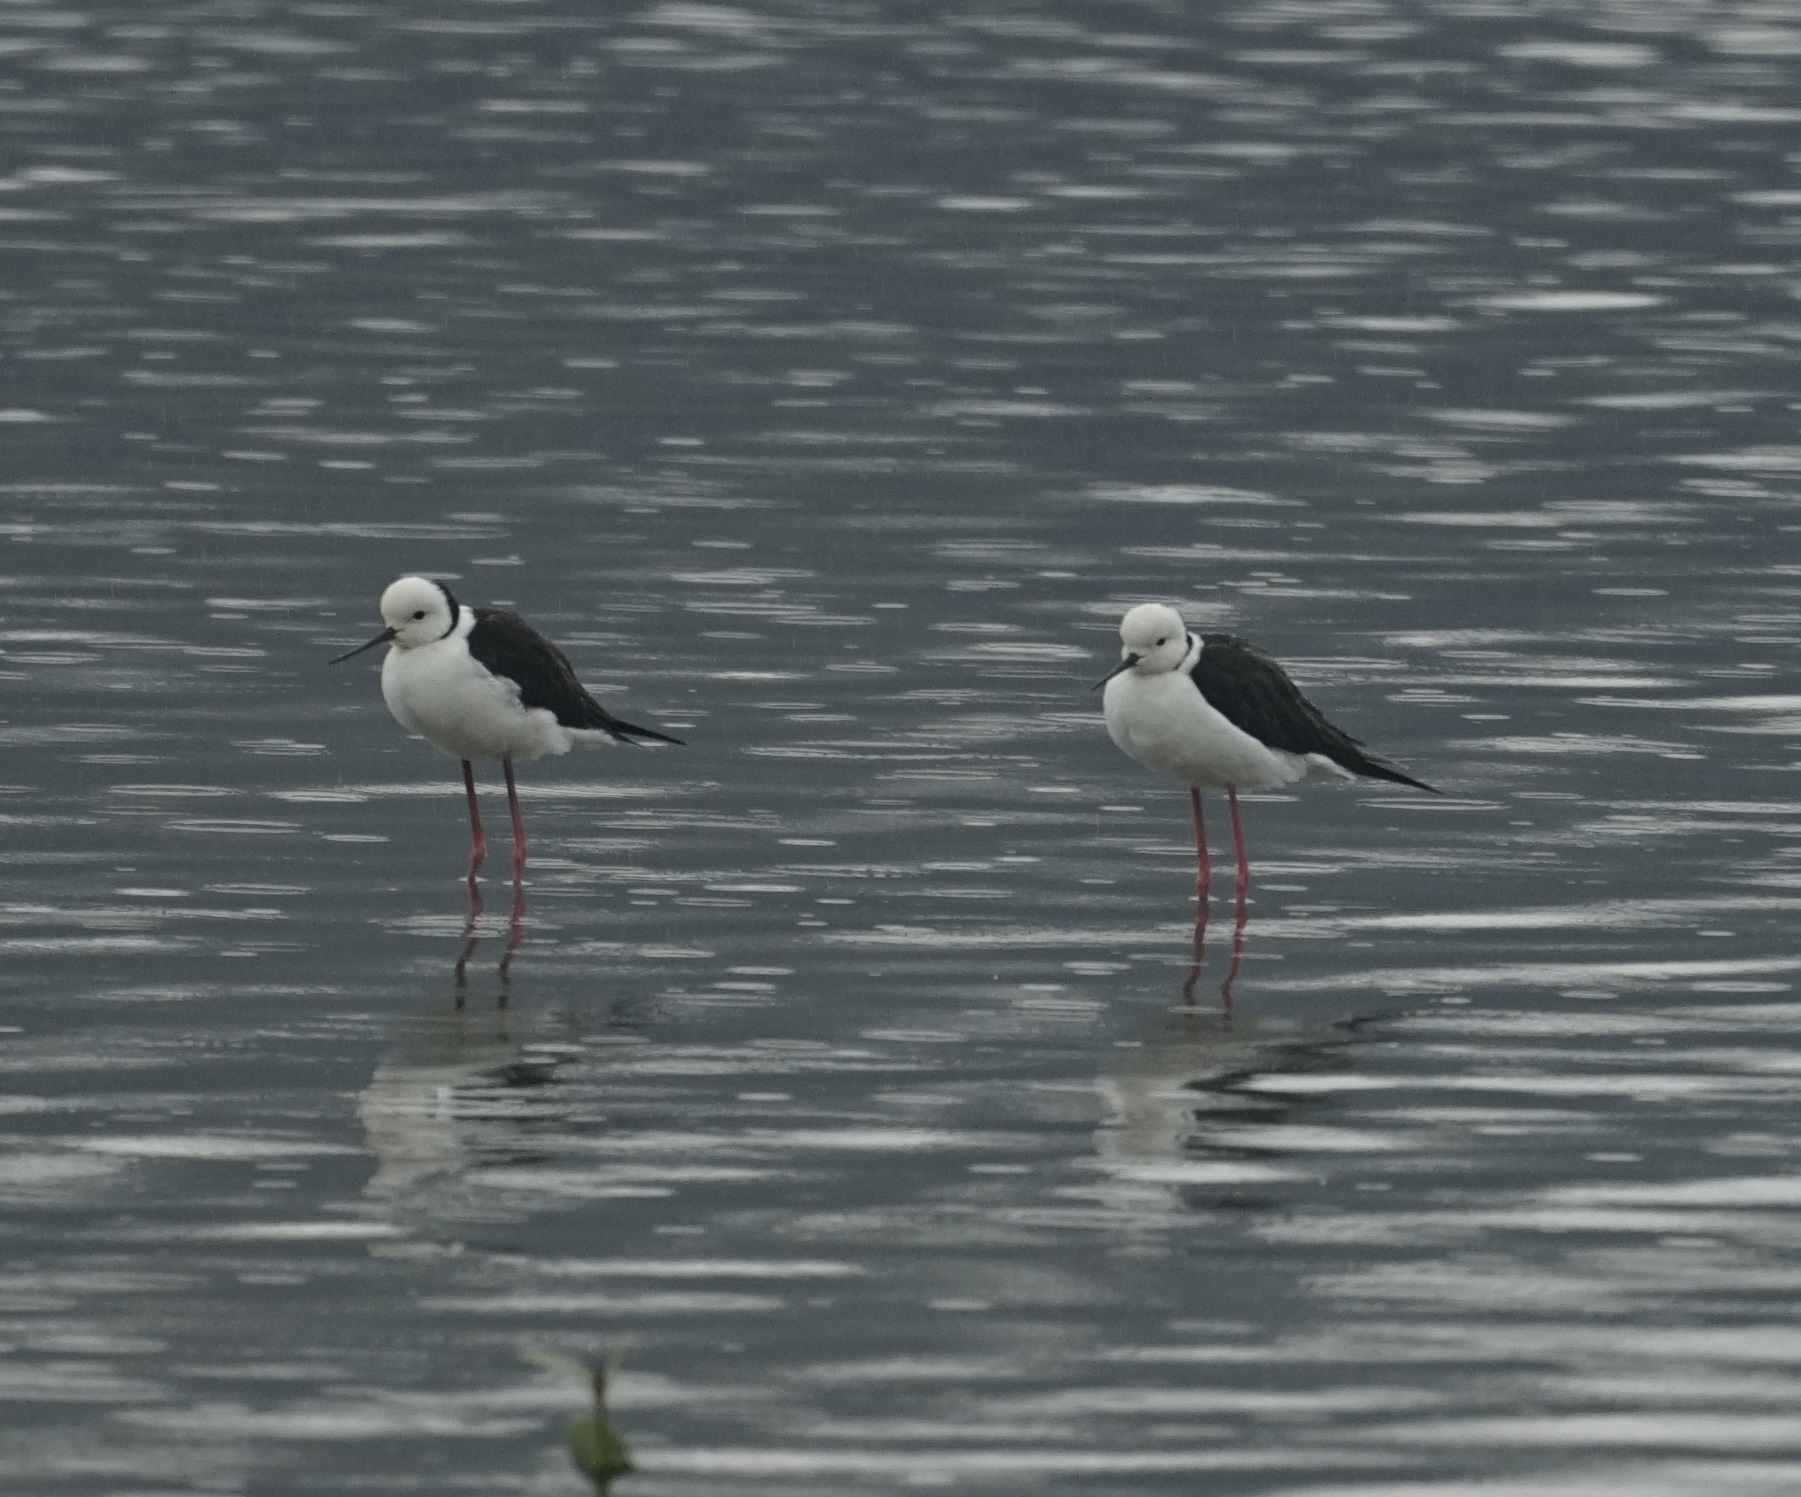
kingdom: Animalia
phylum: Chordata
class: Aves
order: Charadriiformes
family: Recurvirostridae
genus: Himantopus
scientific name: Himantopus leucocephalus
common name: White-headed stilt
